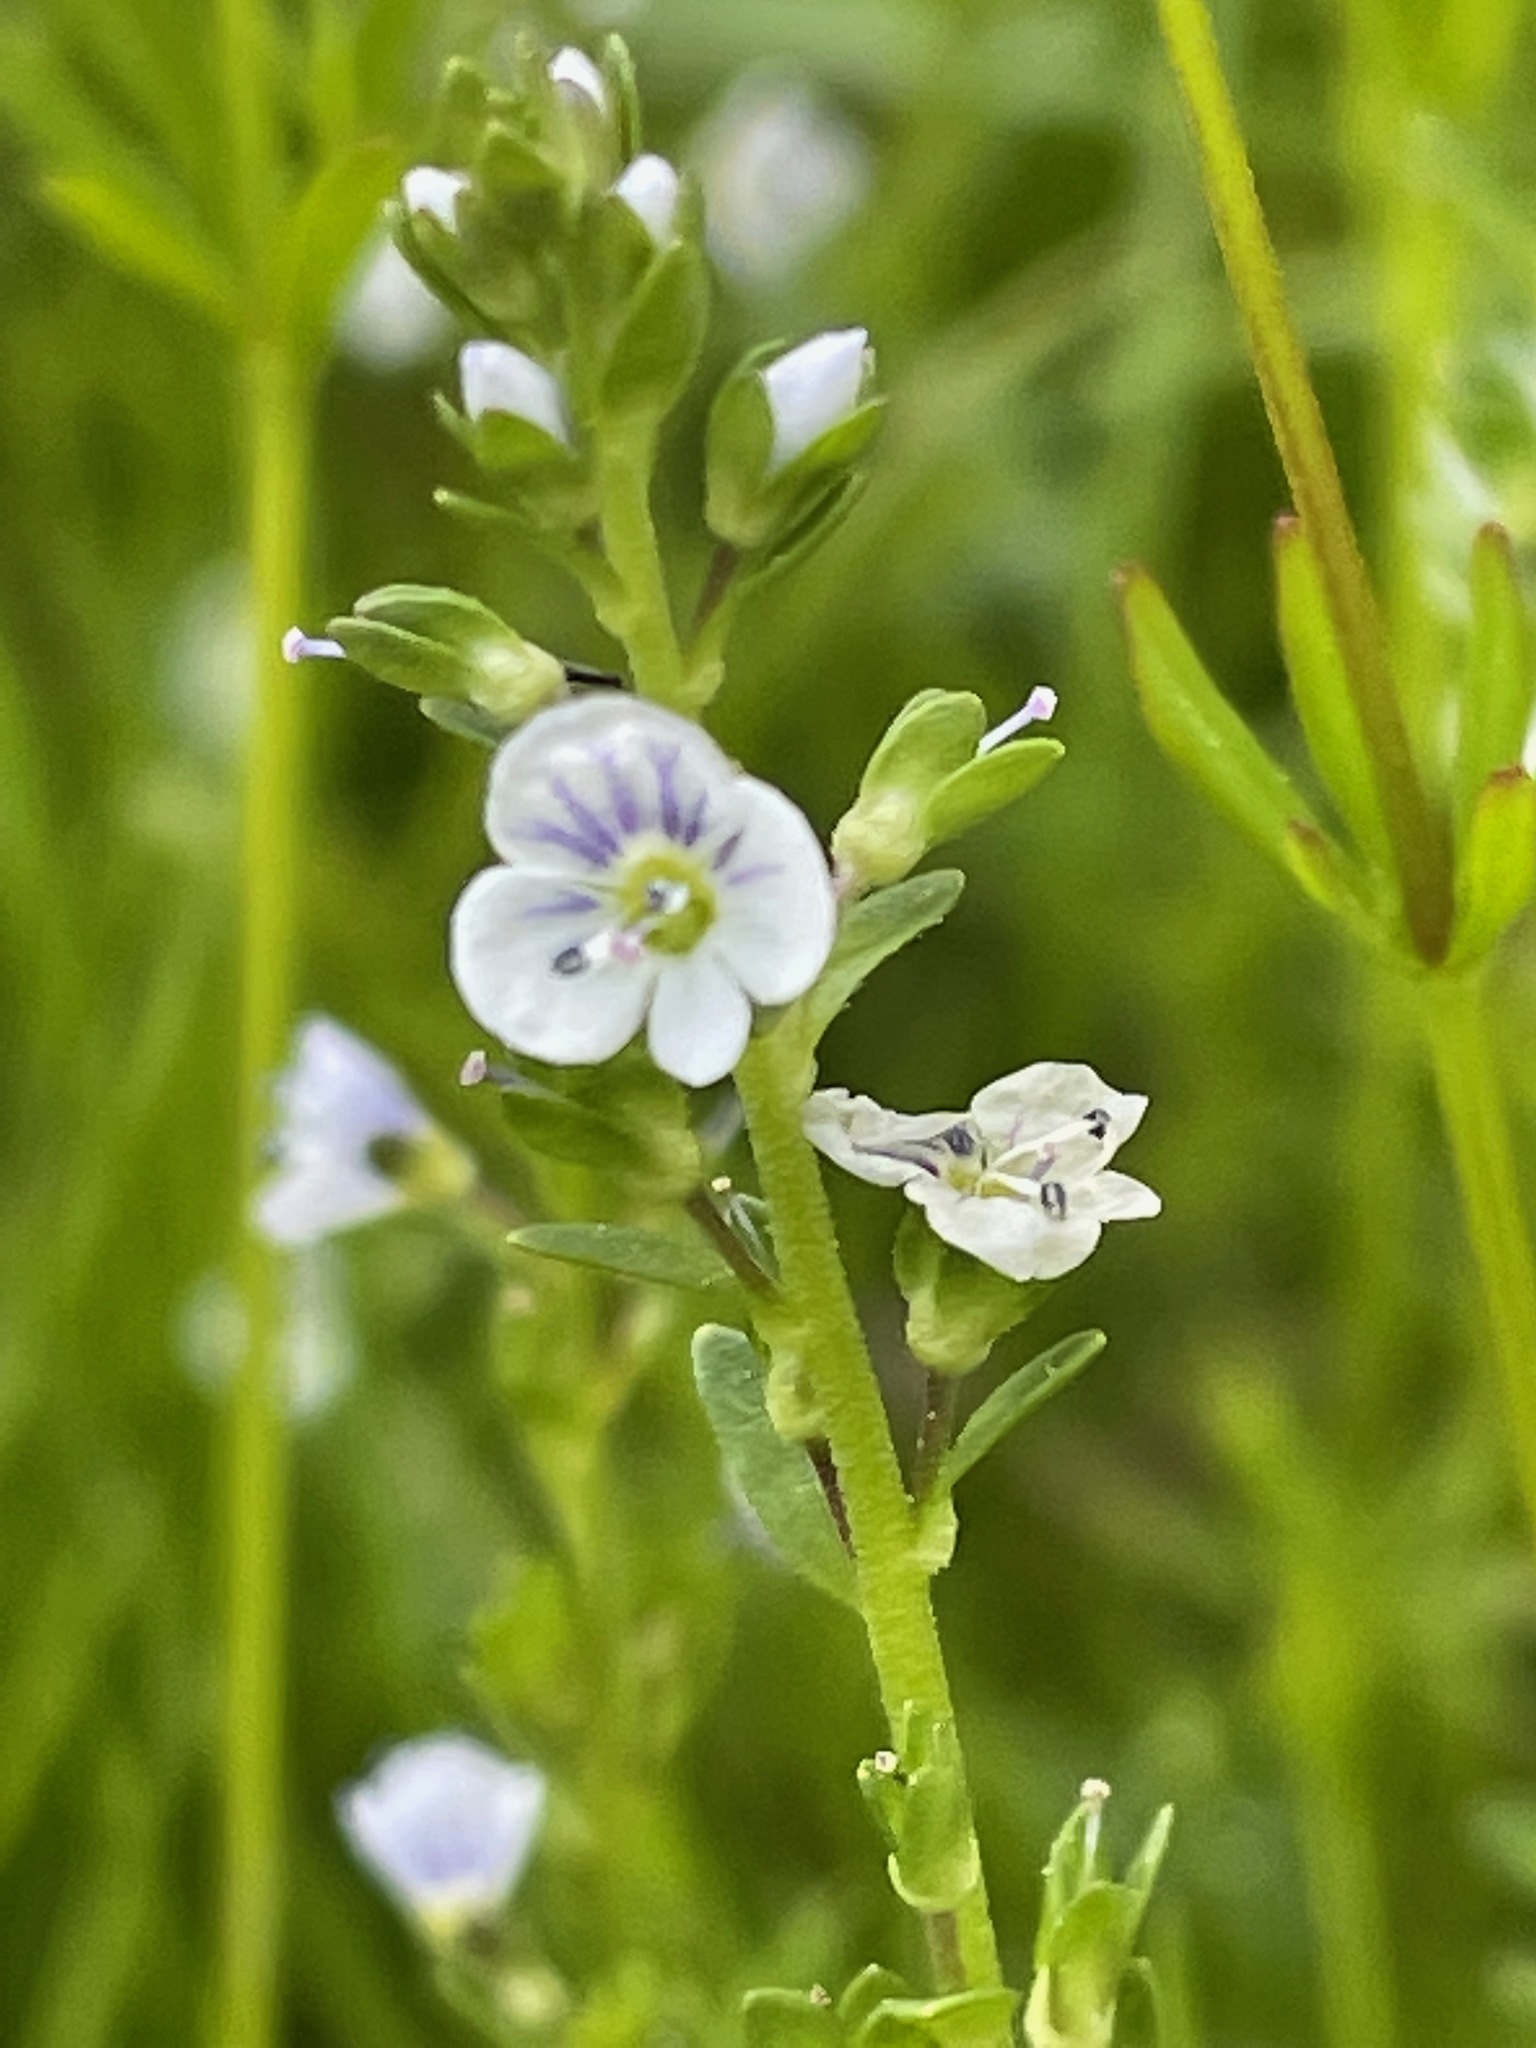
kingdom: Plantae
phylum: Tracheophyta
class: Magnoliopsida
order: Lamiales
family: Plantaginaceae
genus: Veronica
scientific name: Veronica serpyllifolia
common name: Thyme-leaved speedwell
